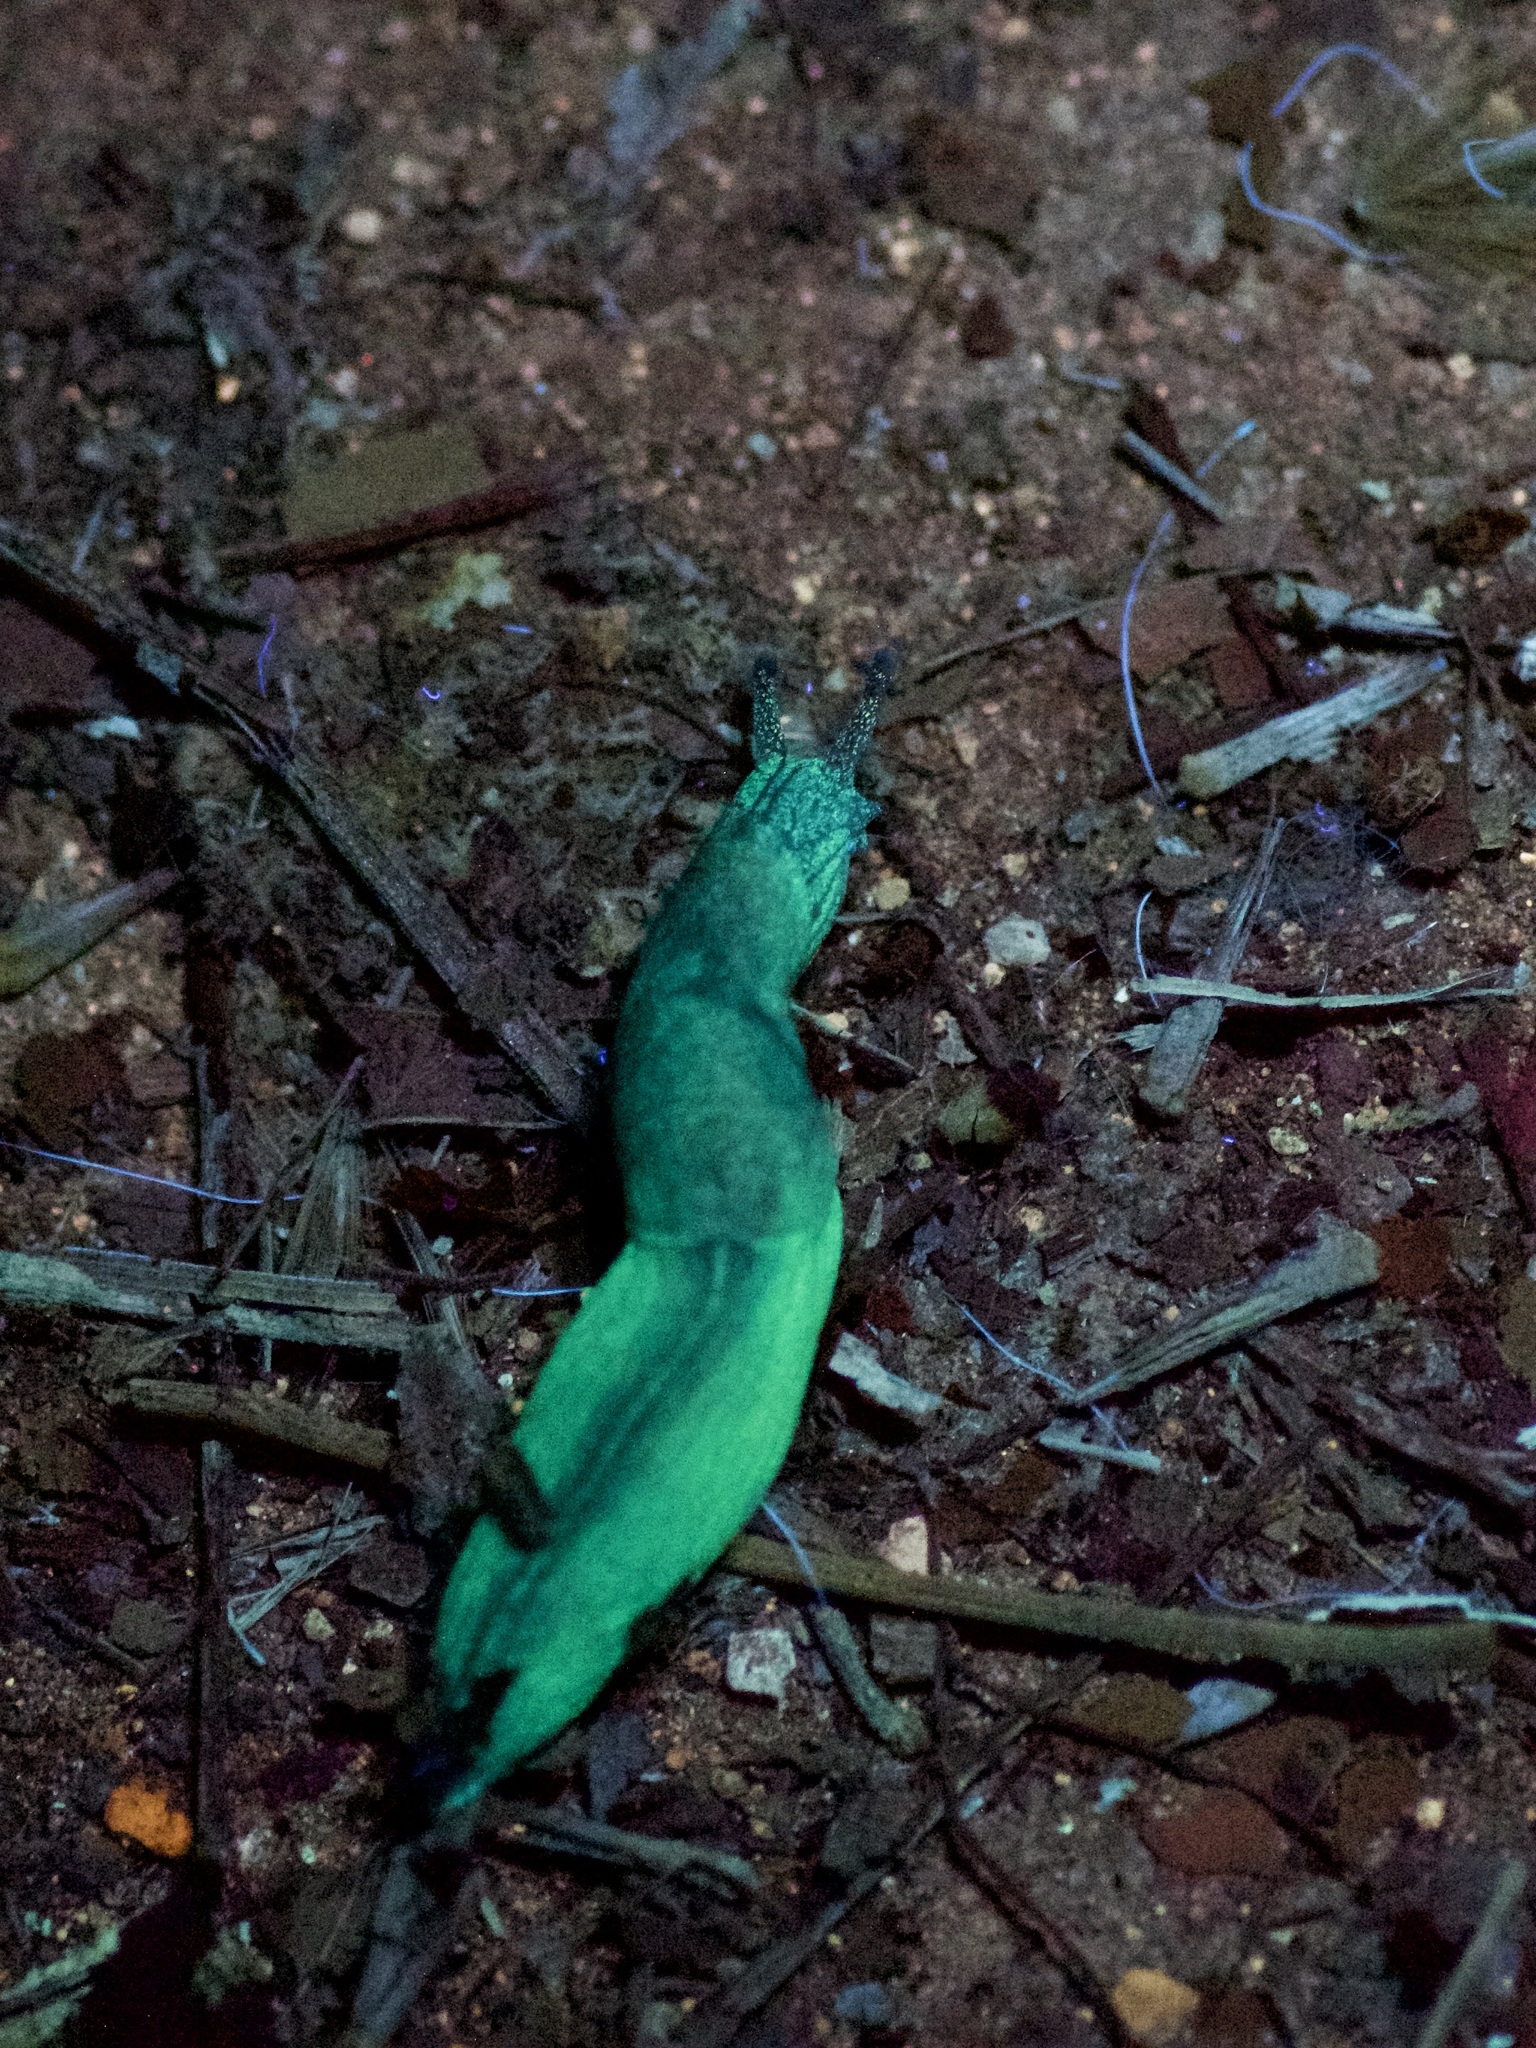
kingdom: Animalia
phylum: Mollusca
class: Gastropoda
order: Stylommatophora
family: Milacidae
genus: Milax
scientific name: Milax gagates
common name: Greenhouse slug
